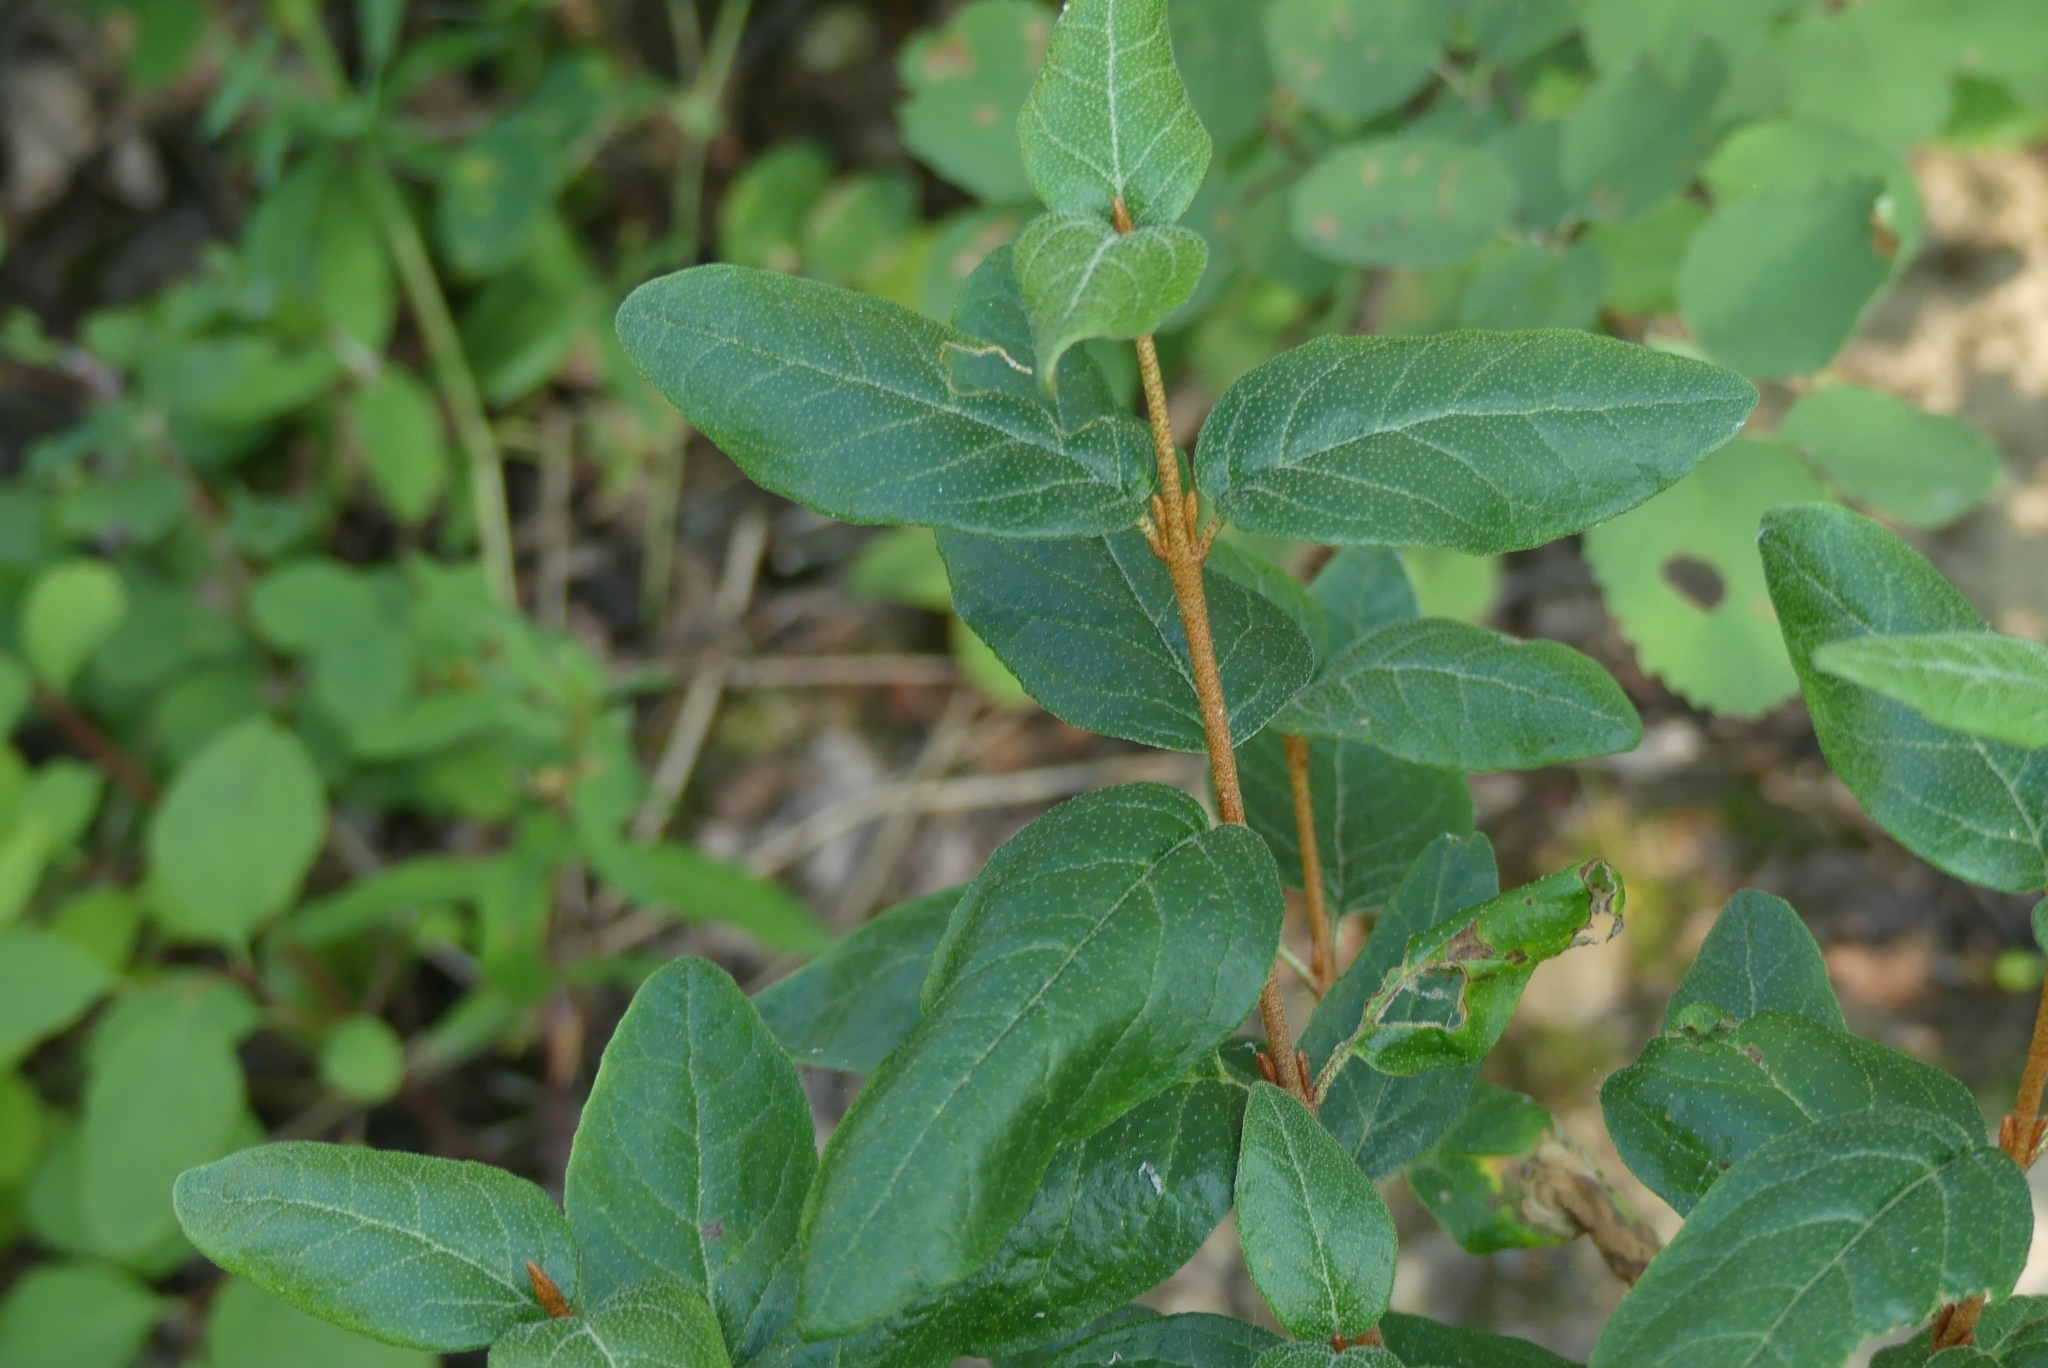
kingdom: Plantae
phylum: Tracheophyta
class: Magnoliopsida
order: Rosales
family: Elaeagnaceae
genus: Shepherdia
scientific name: Shepherdia canadensis
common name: Soapberry
